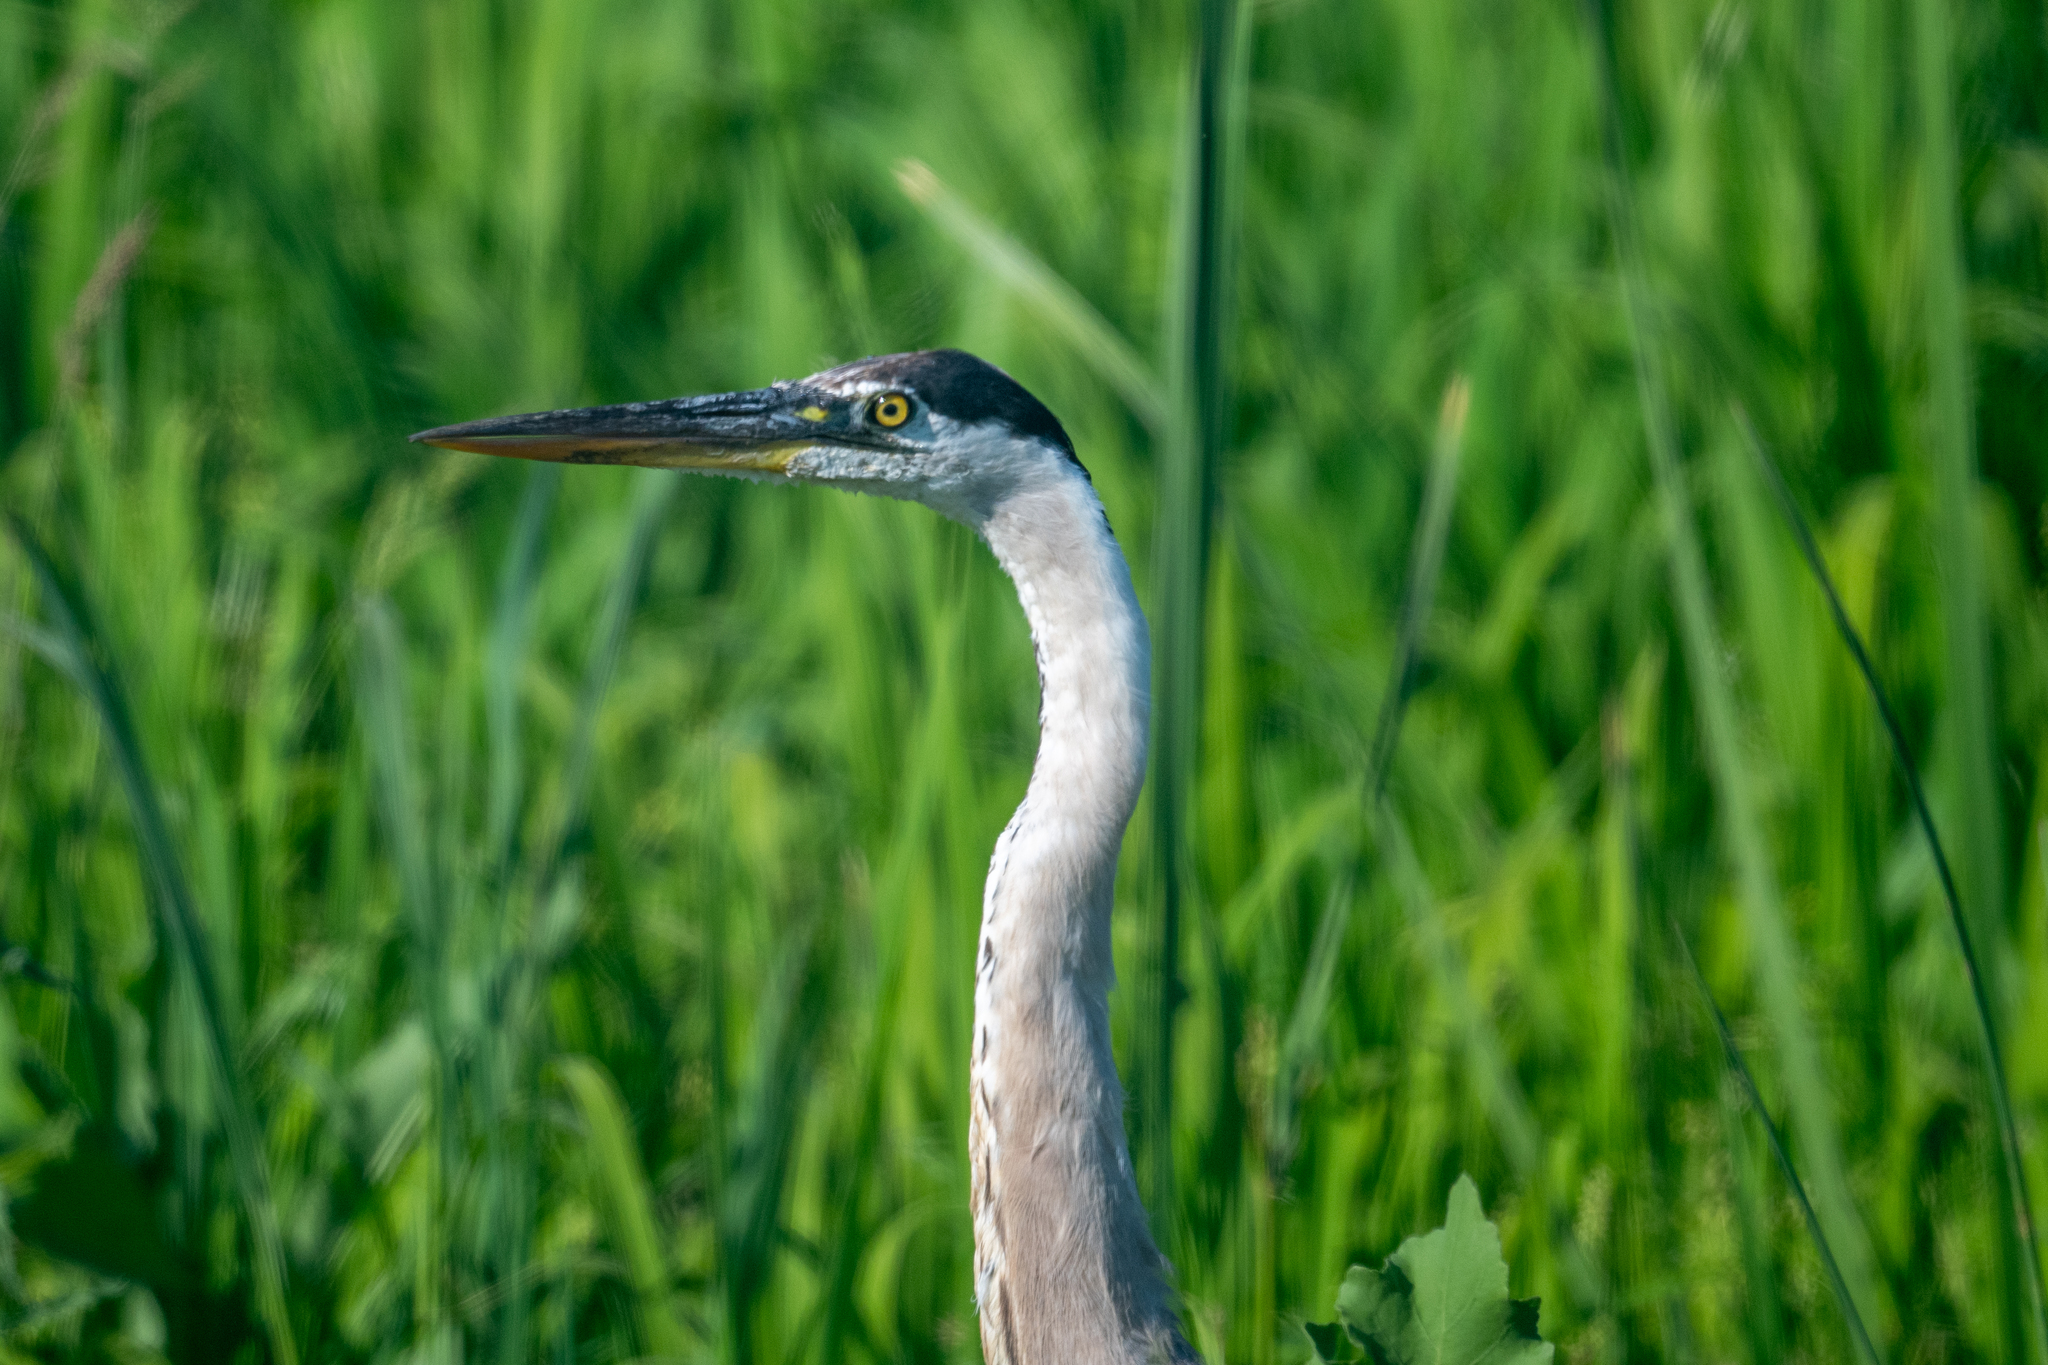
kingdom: Animalia
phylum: Chordata
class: Aves
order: Pelecaniformes
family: Ardeidae
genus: Ardea
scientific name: Ardea herodias
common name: Great blue heron
